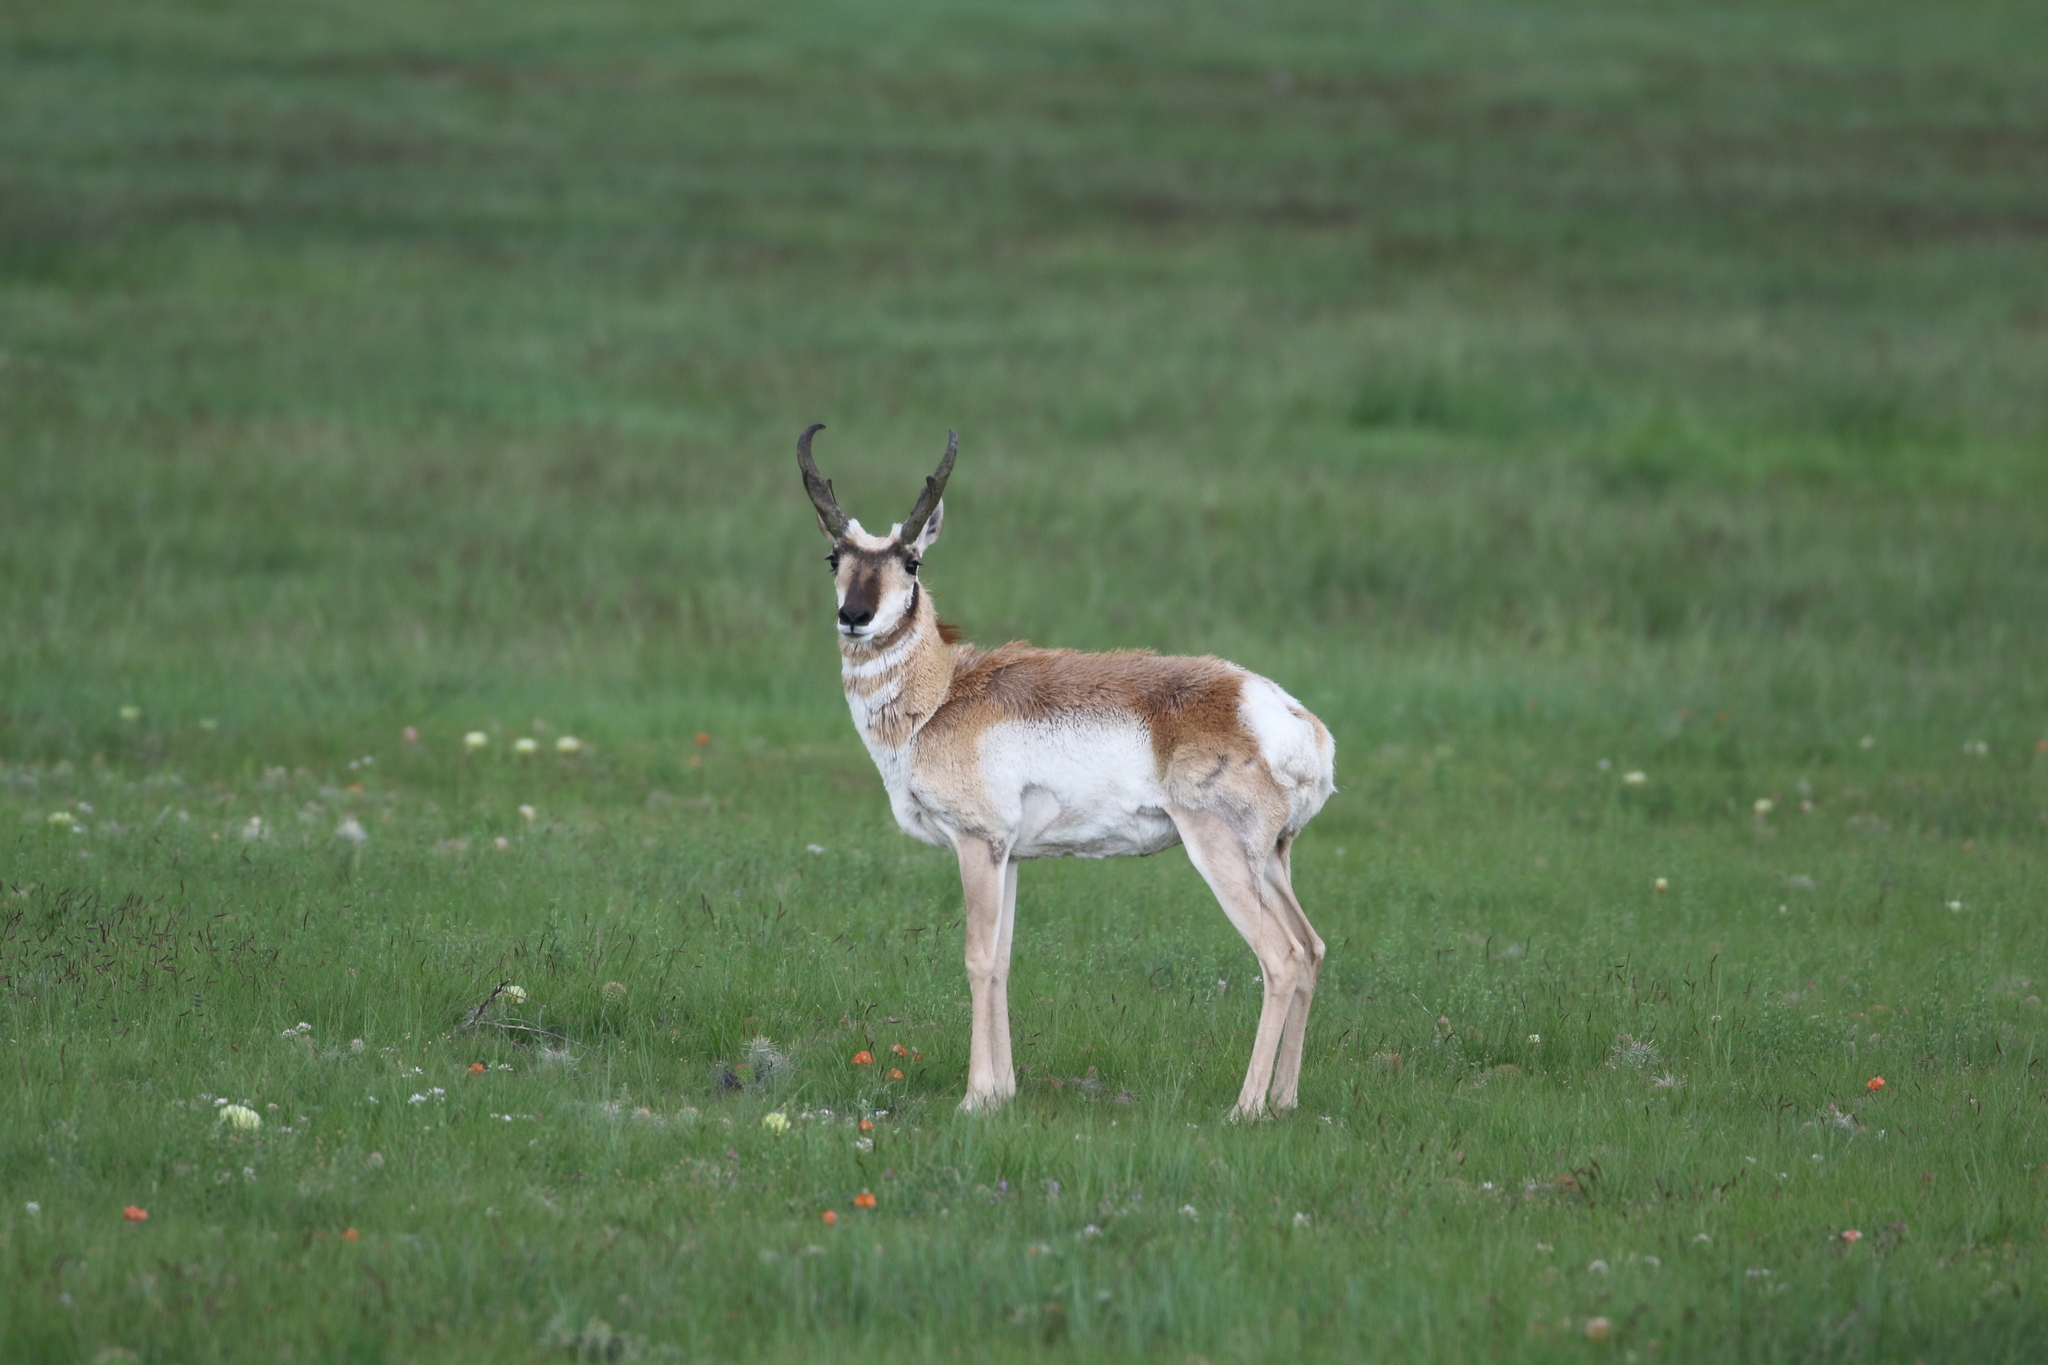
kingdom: Animalia
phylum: Chordata
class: Mammalia
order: Artiodactyla
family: Antilocapridae
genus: Antilocapra
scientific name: Antilocapra americana
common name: Pronghorn
